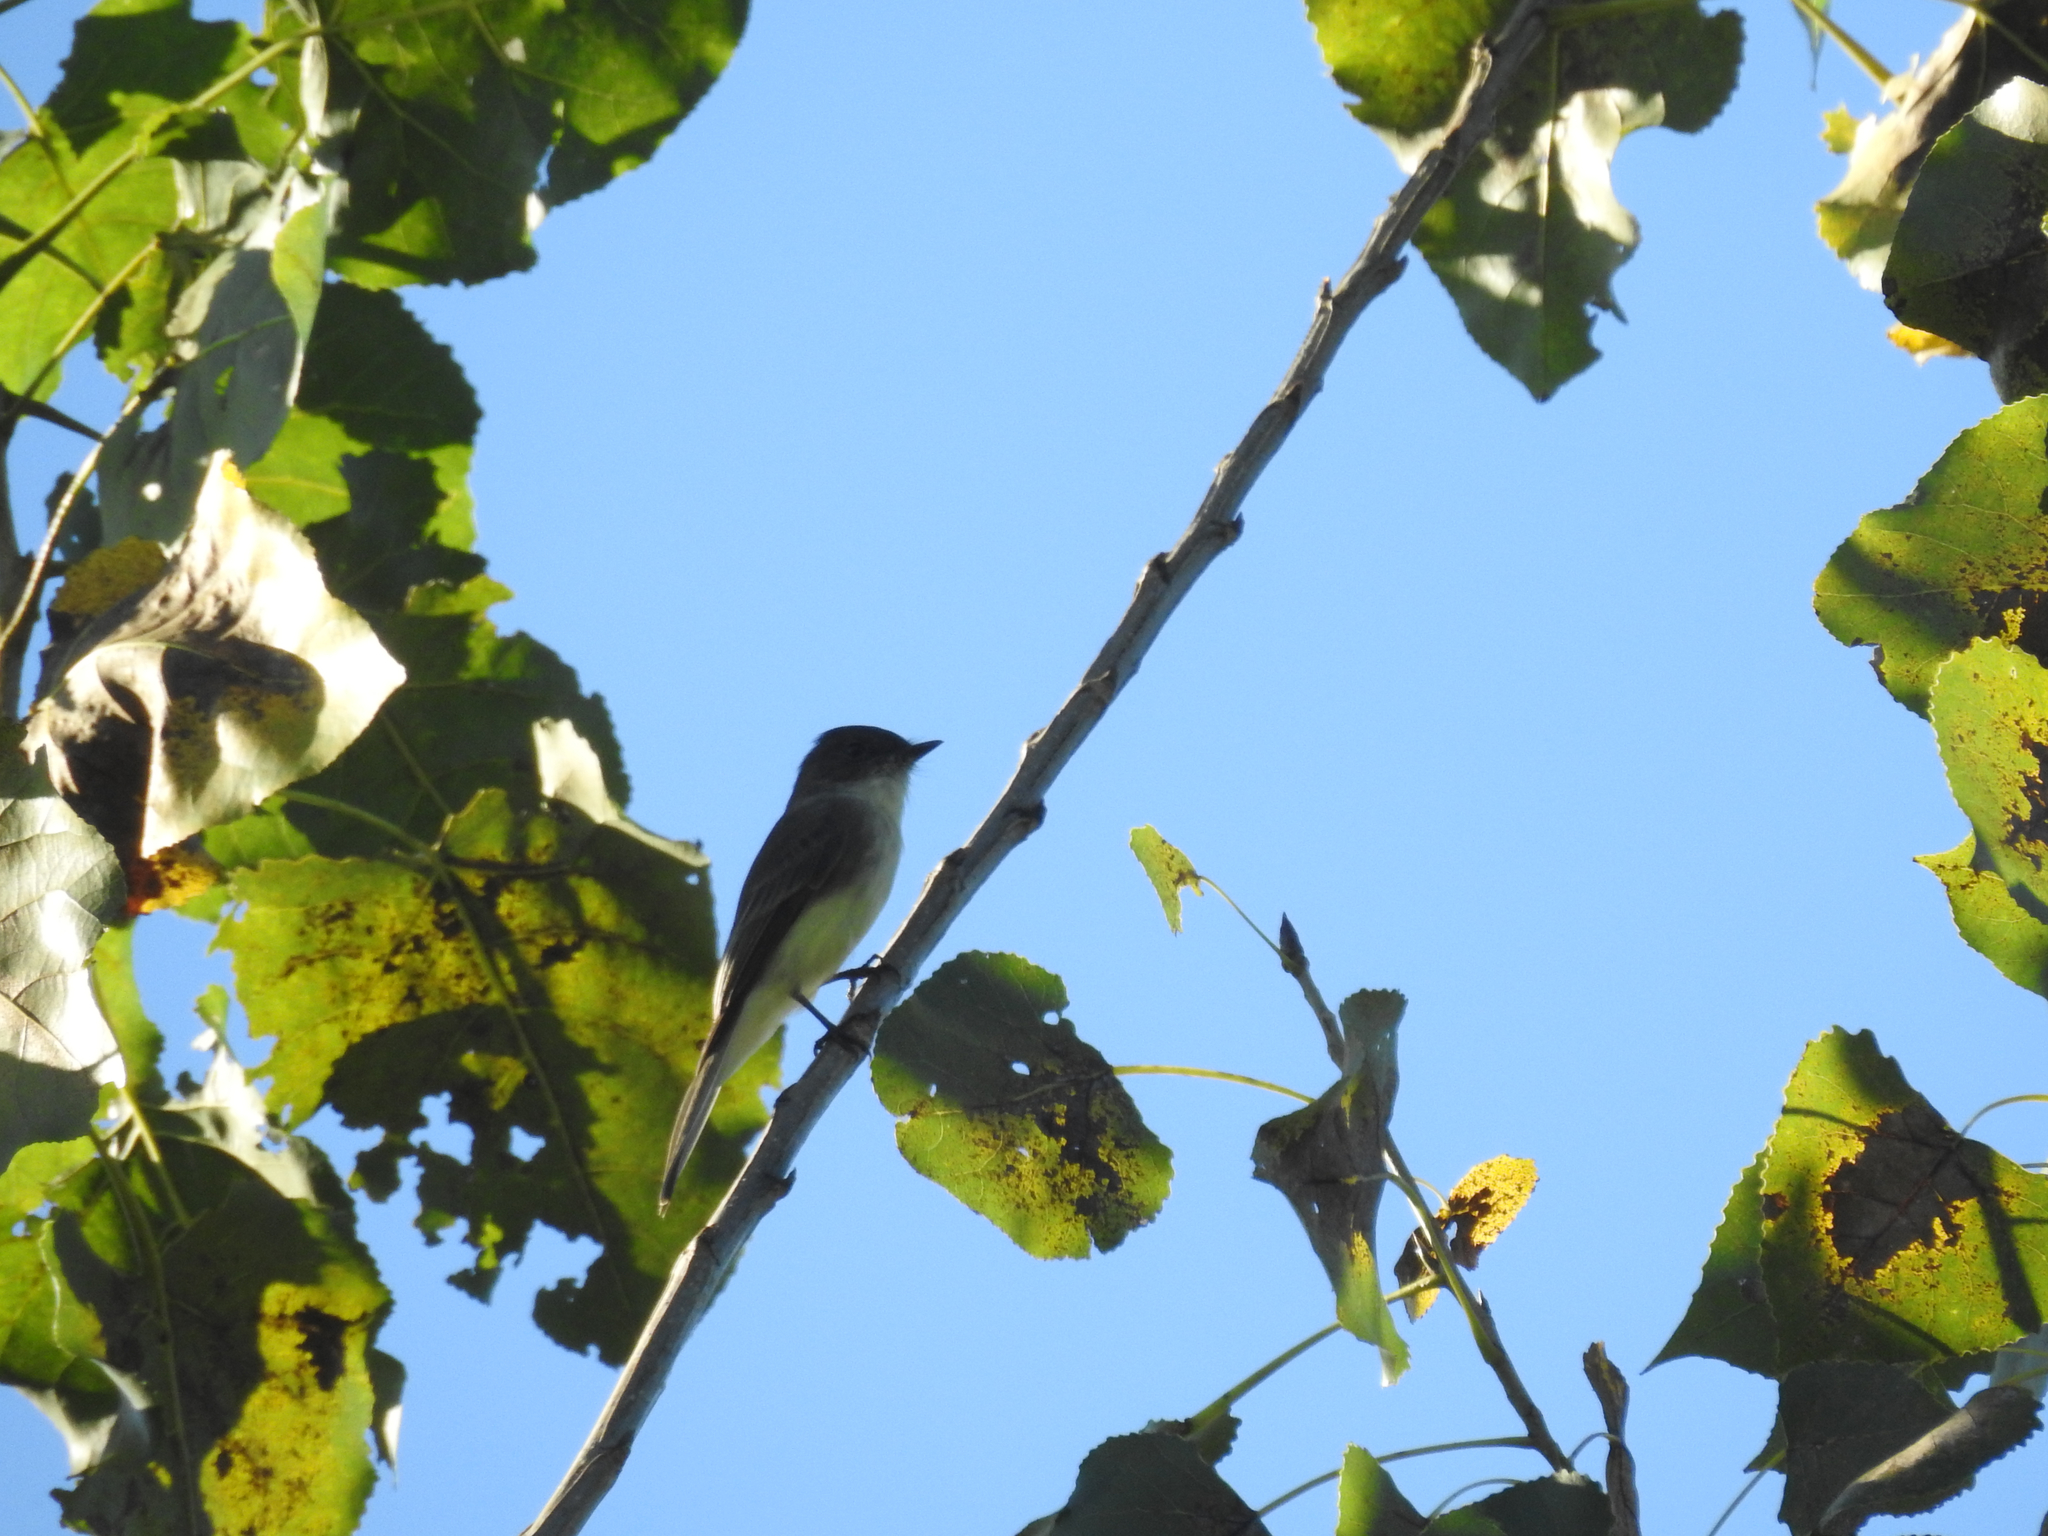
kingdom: Animalia
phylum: Chordata
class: Aves
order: Passeriformes
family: Tyrannidae
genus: Sayornis
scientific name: Sayornis phoebe
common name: Eastern phoebe
